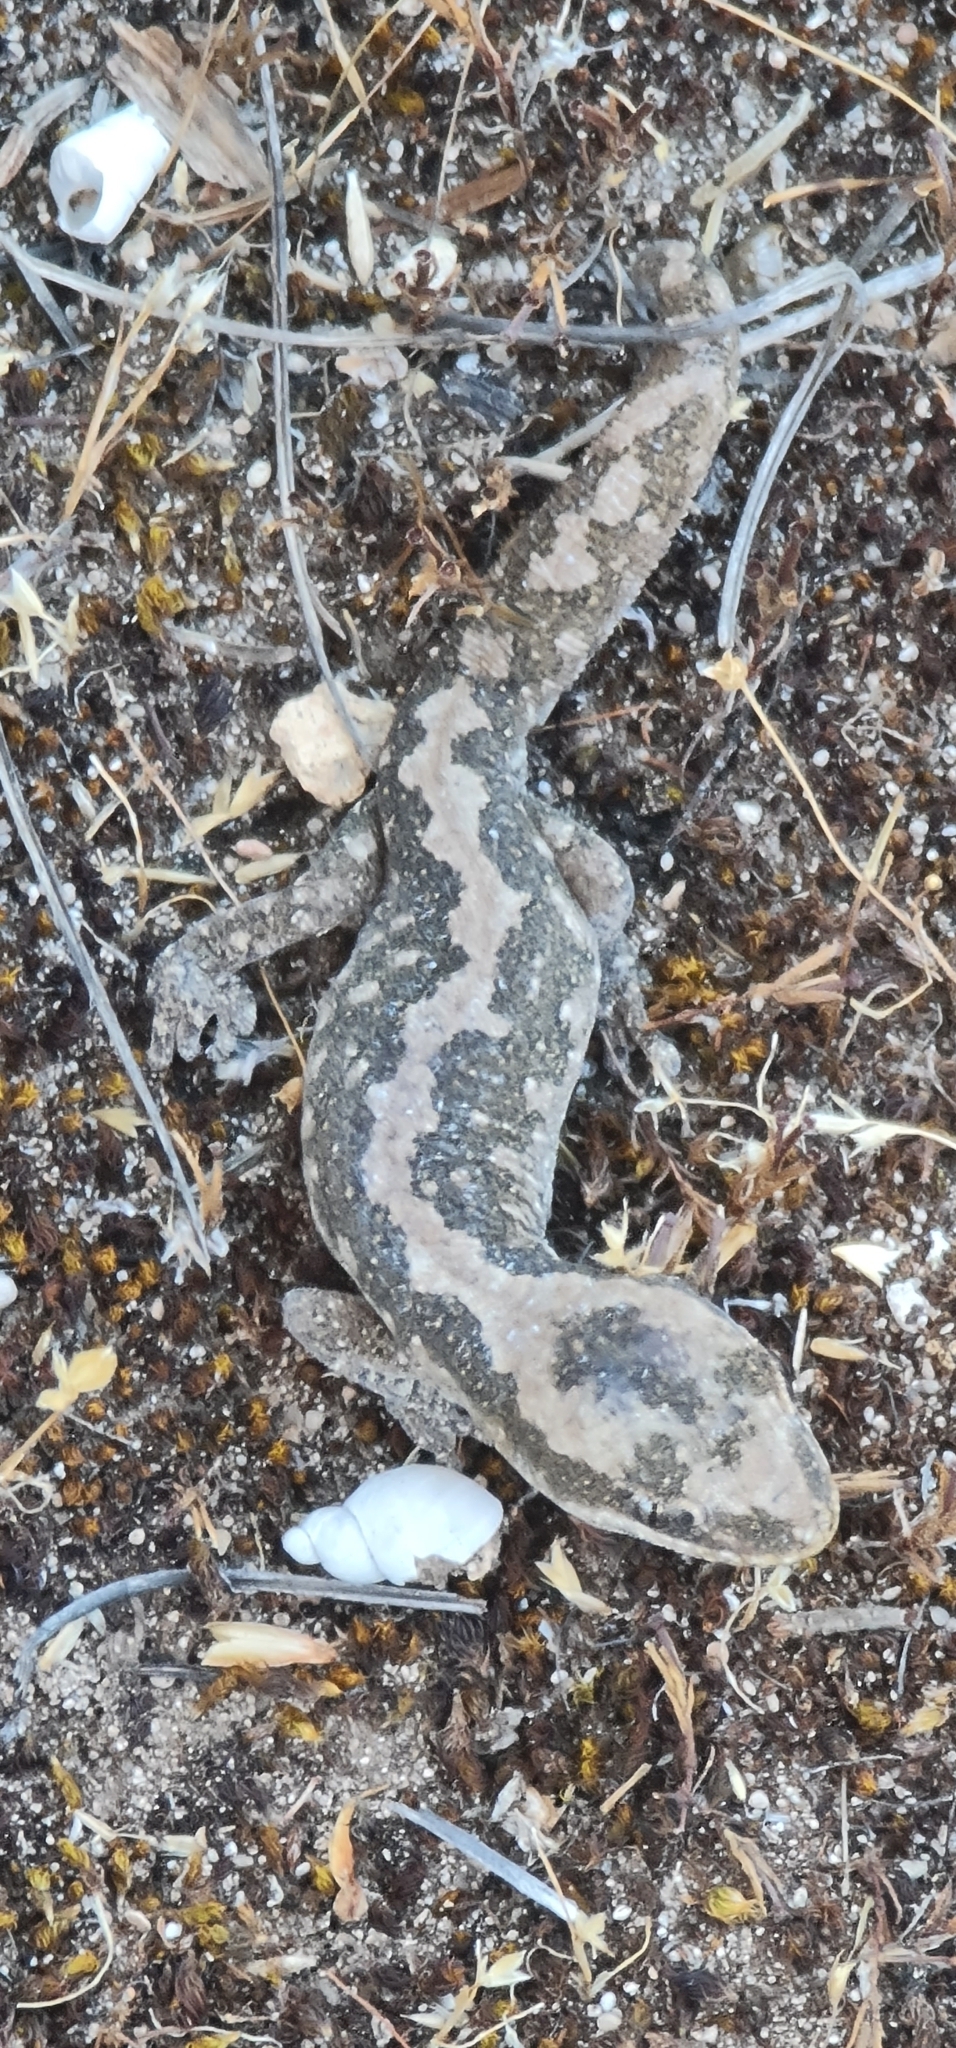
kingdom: Animalia
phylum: Chordata
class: Squamata
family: Diplodactylidae
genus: Diplodactylus
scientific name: Diplodactylus calcicolus
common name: South coast gecko
